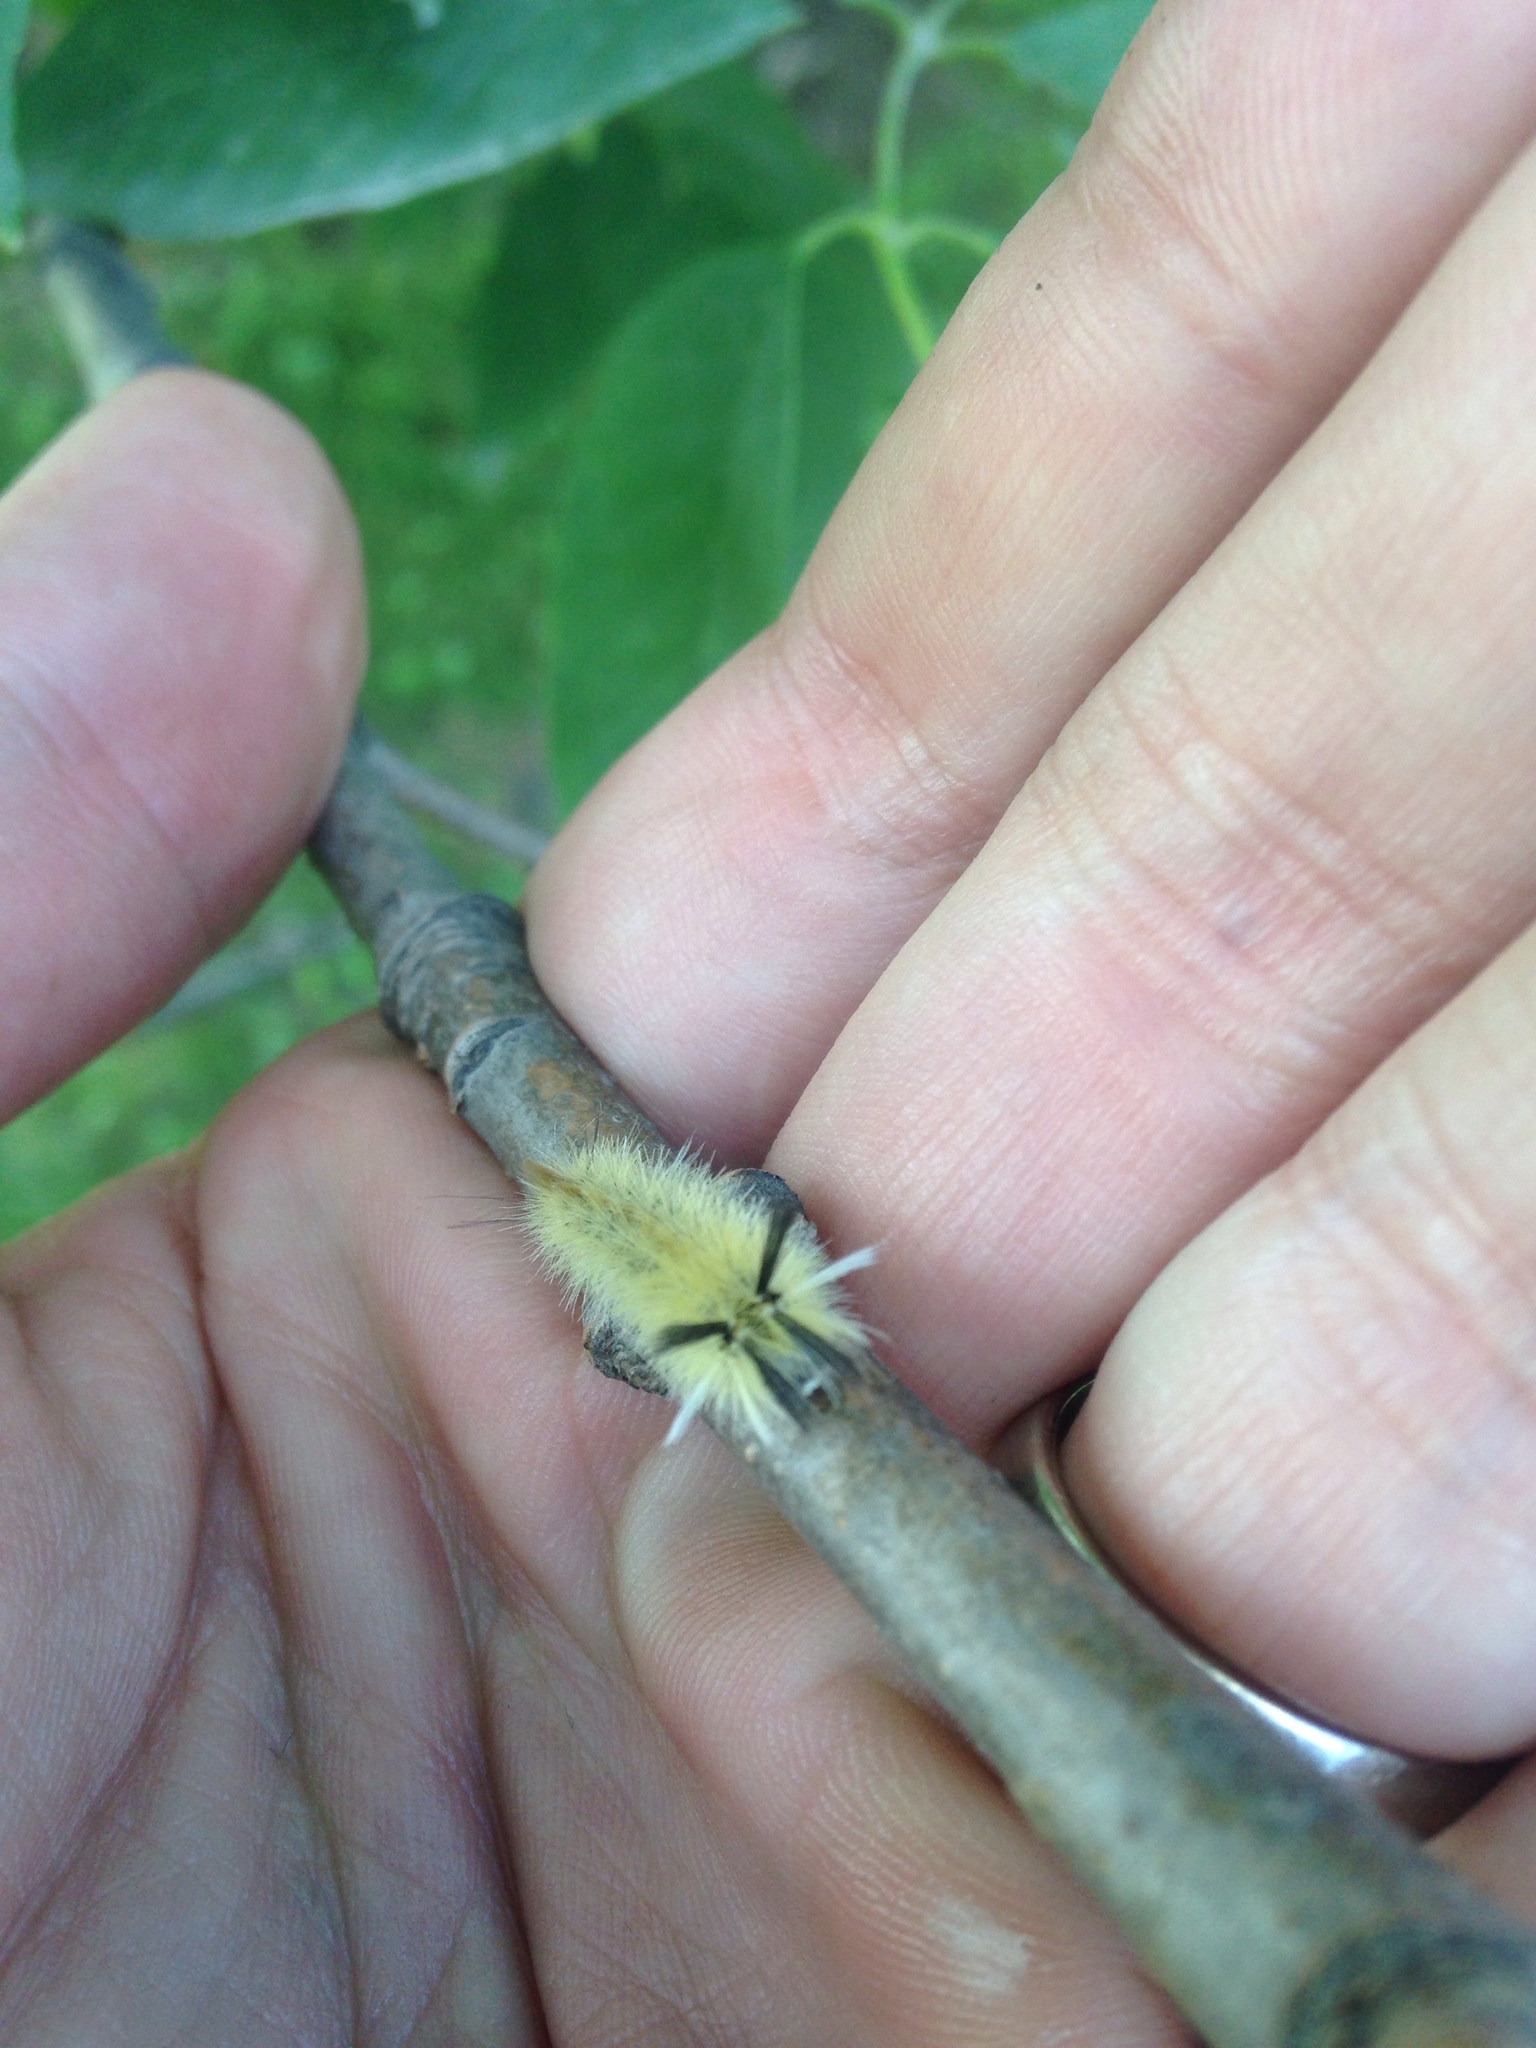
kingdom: Animalia
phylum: Arthropoda
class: Insecta
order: Lepidoptera
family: Erebidae
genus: Halysidota
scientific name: Halysidota tessellaris
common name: Banded tussock moth
